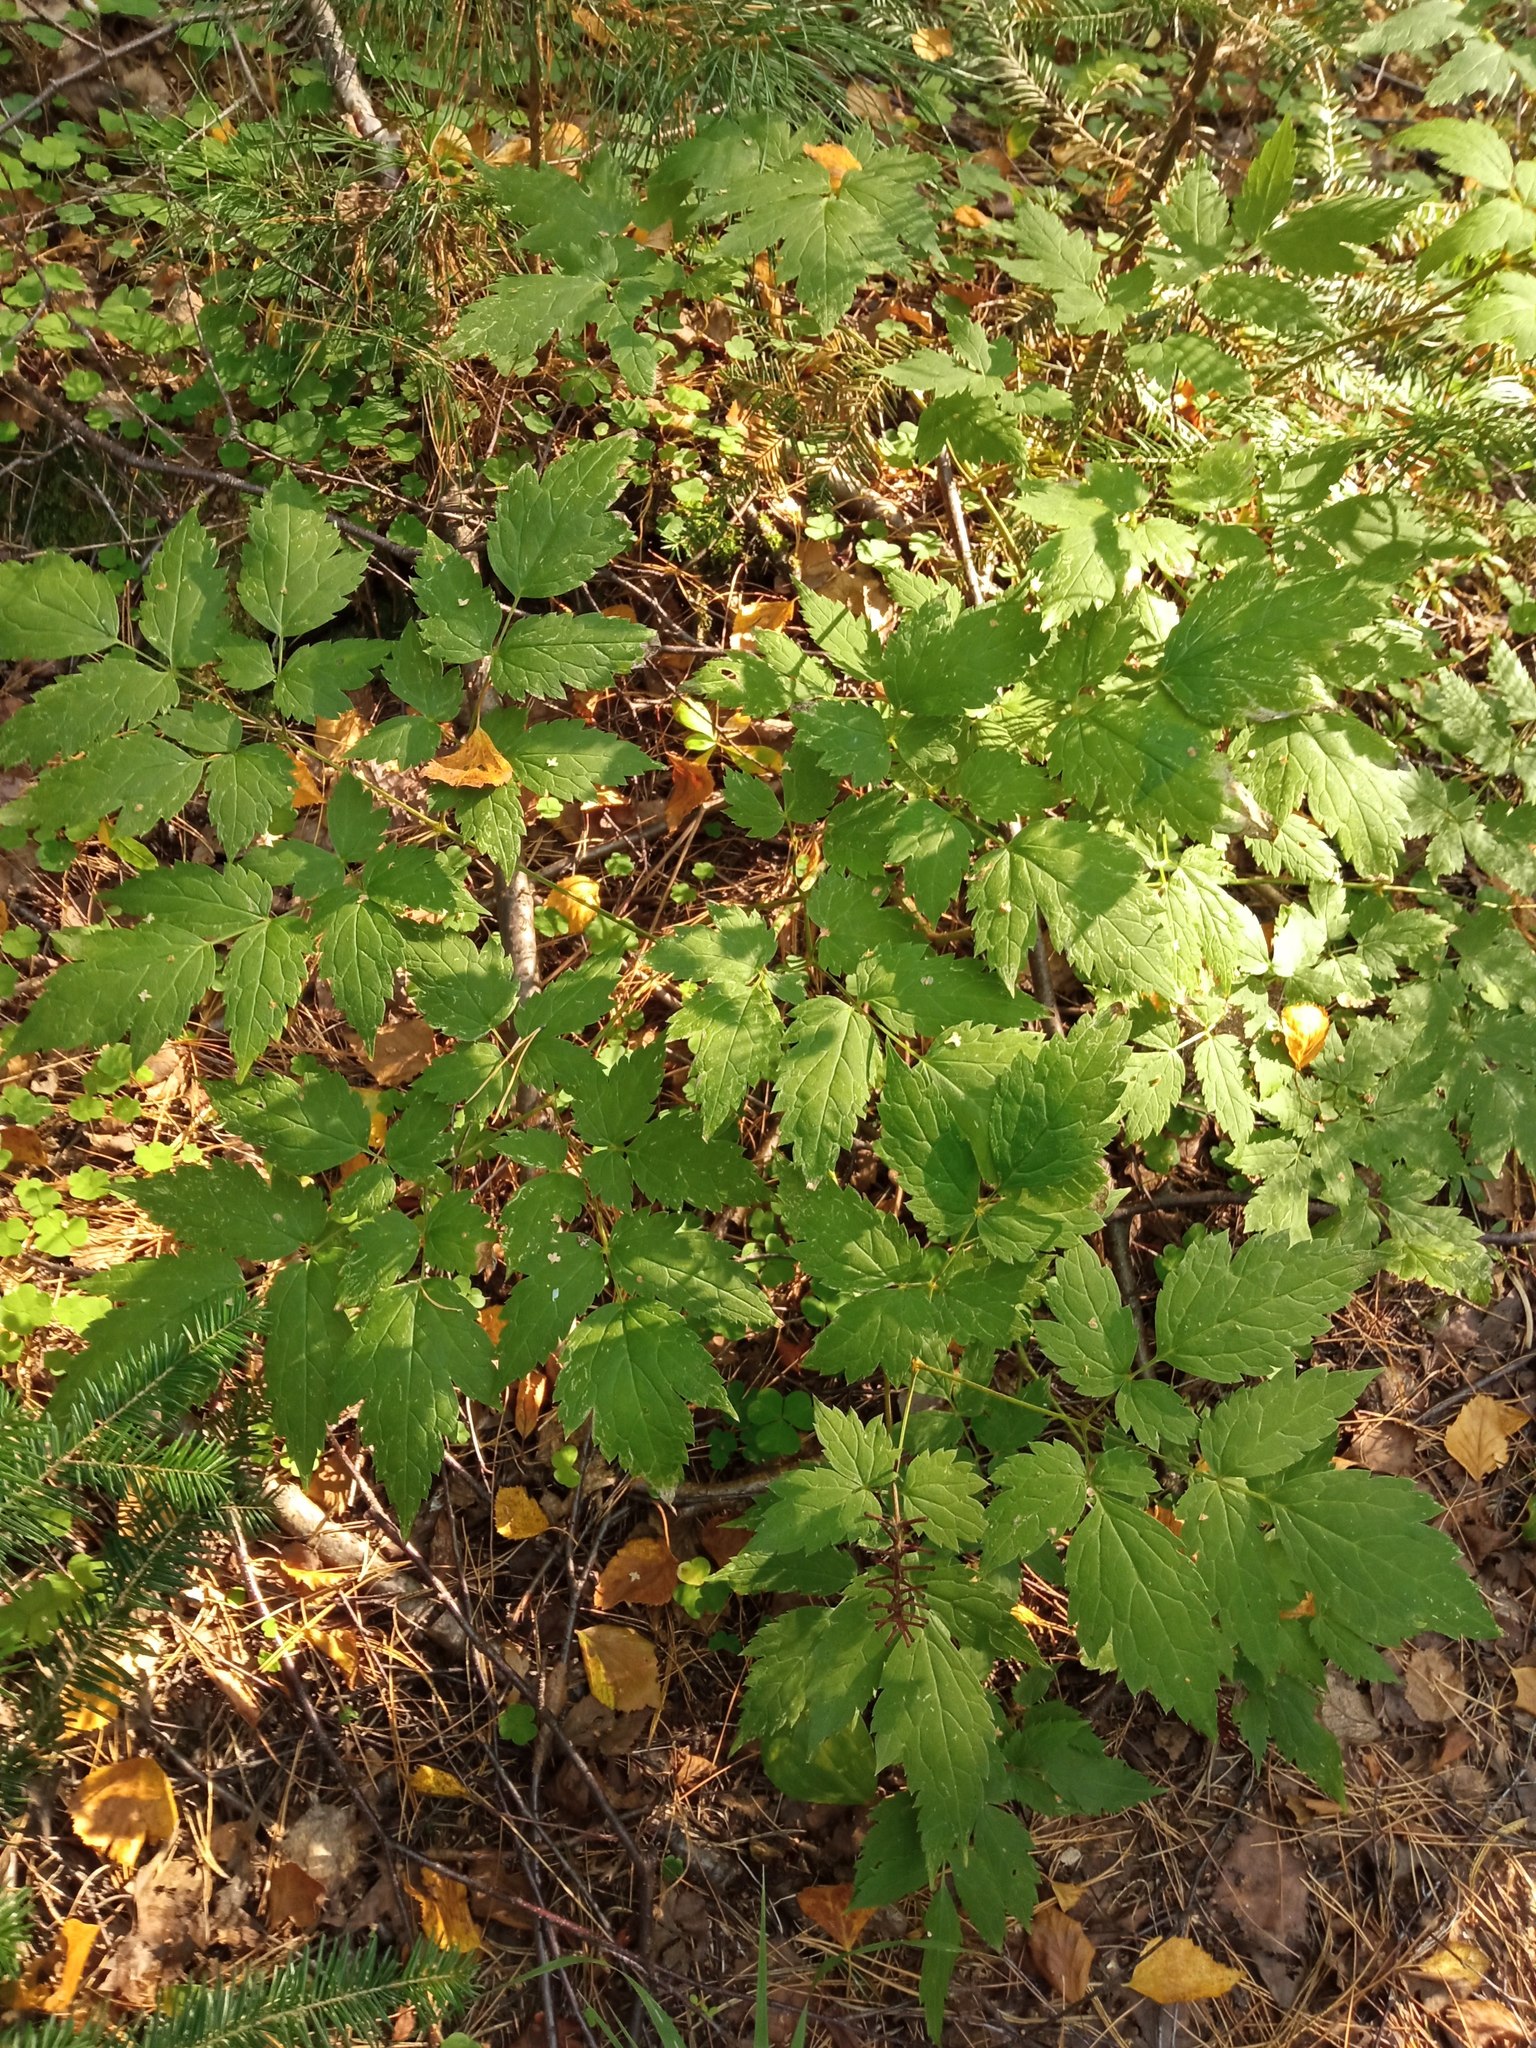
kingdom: Plantae
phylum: Tracheophyta
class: Magnoliopsida
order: Ranunculales
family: Ranunculaceae
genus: Actaea
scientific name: Actaea erythrocarpa
